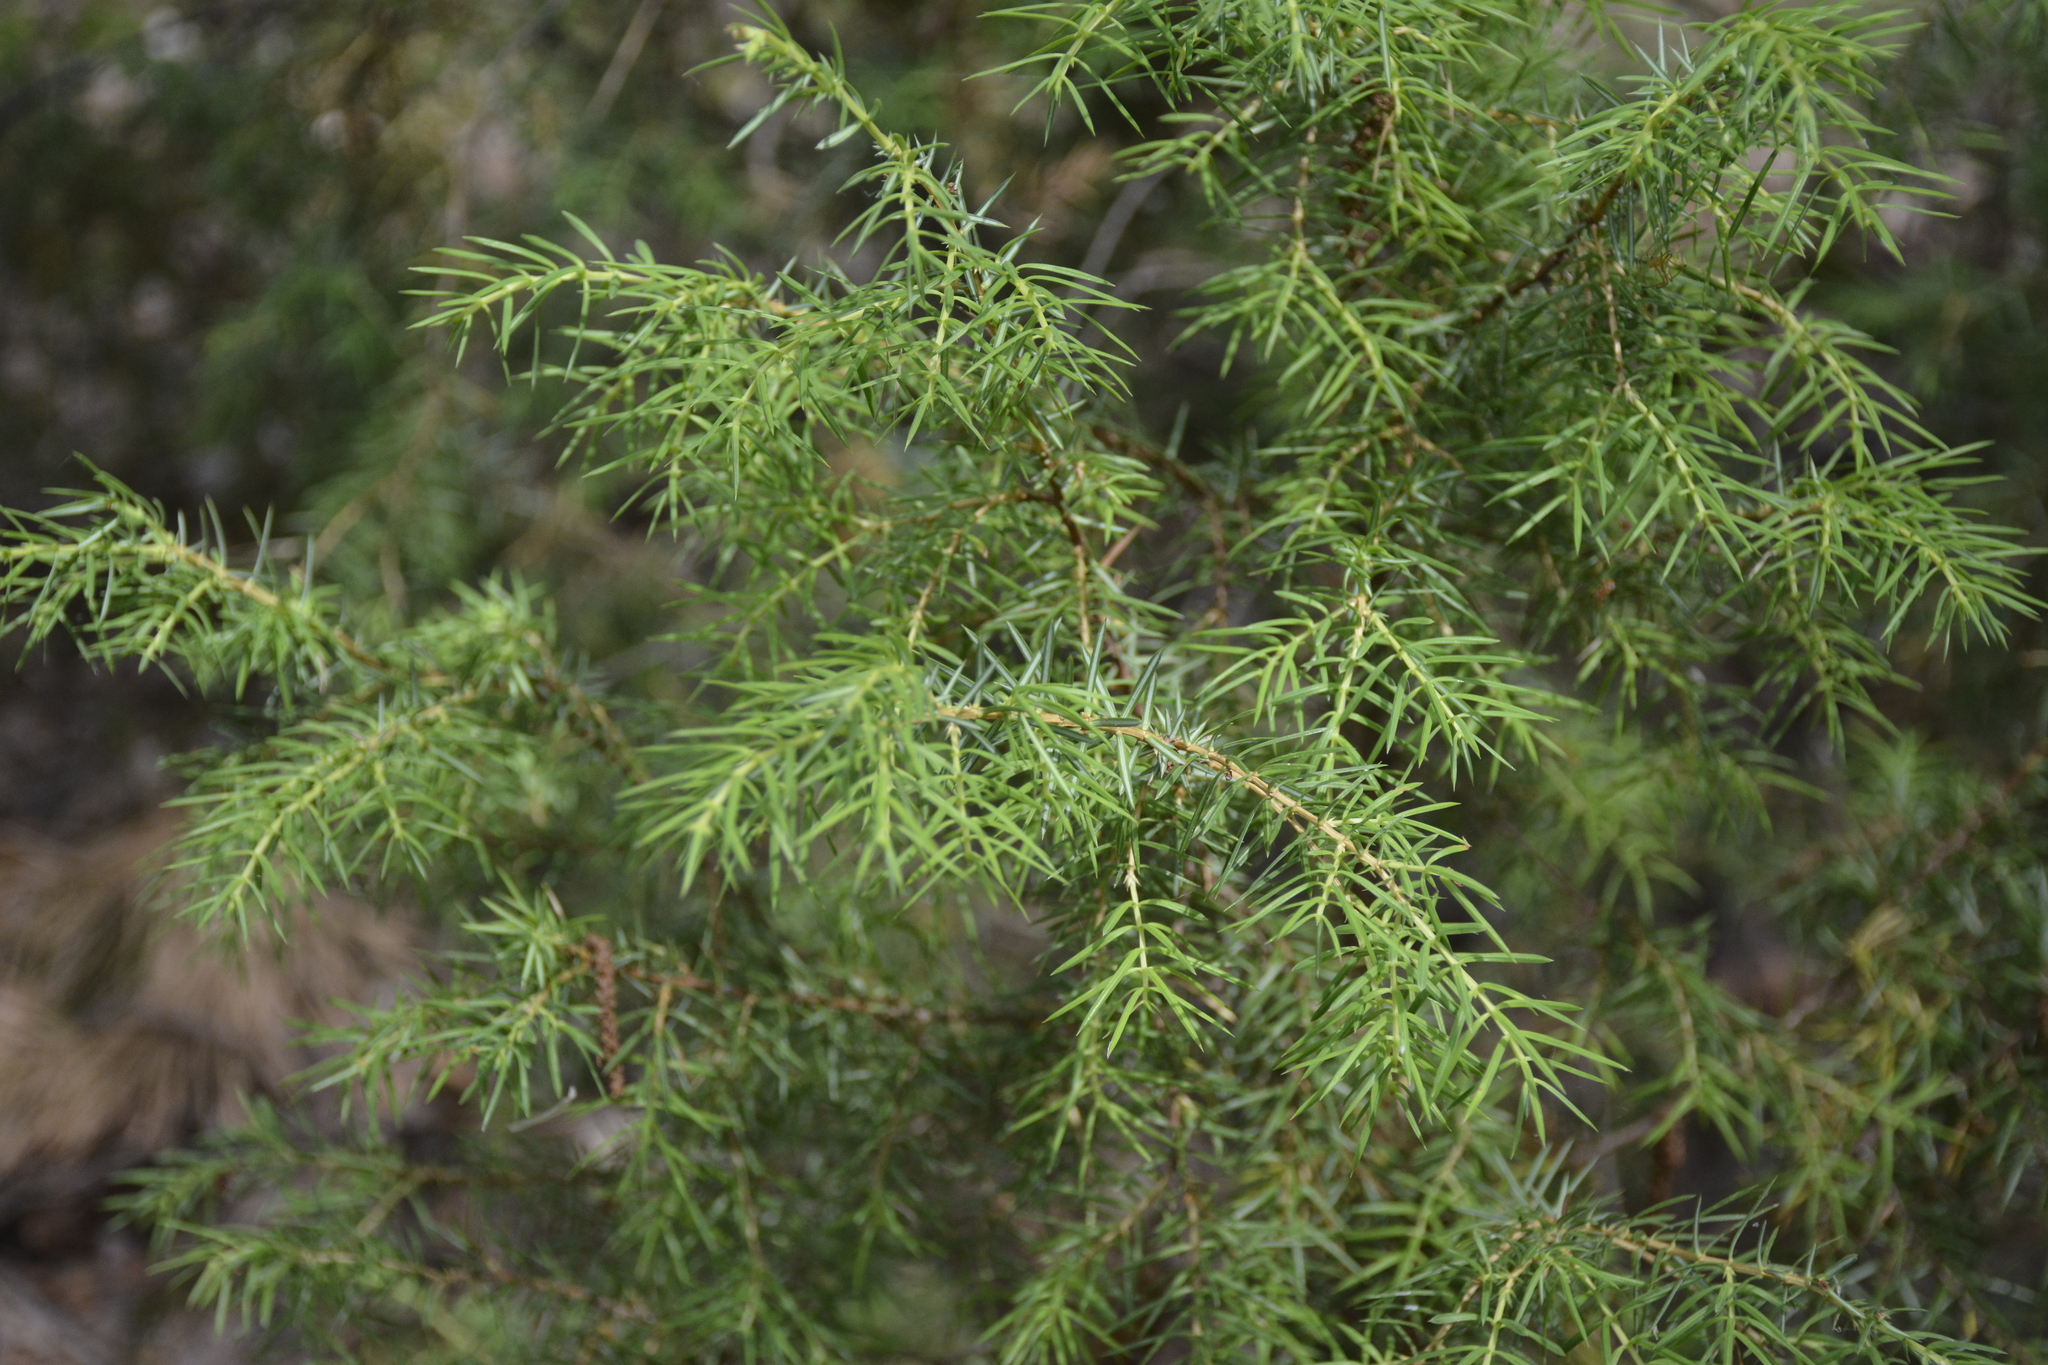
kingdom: Plantae
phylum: Tracheophyta
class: Pinopsida
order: Pinales
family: Cupressaceae
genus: Juniperus
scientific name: Juniperus communis
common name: Common juniper
